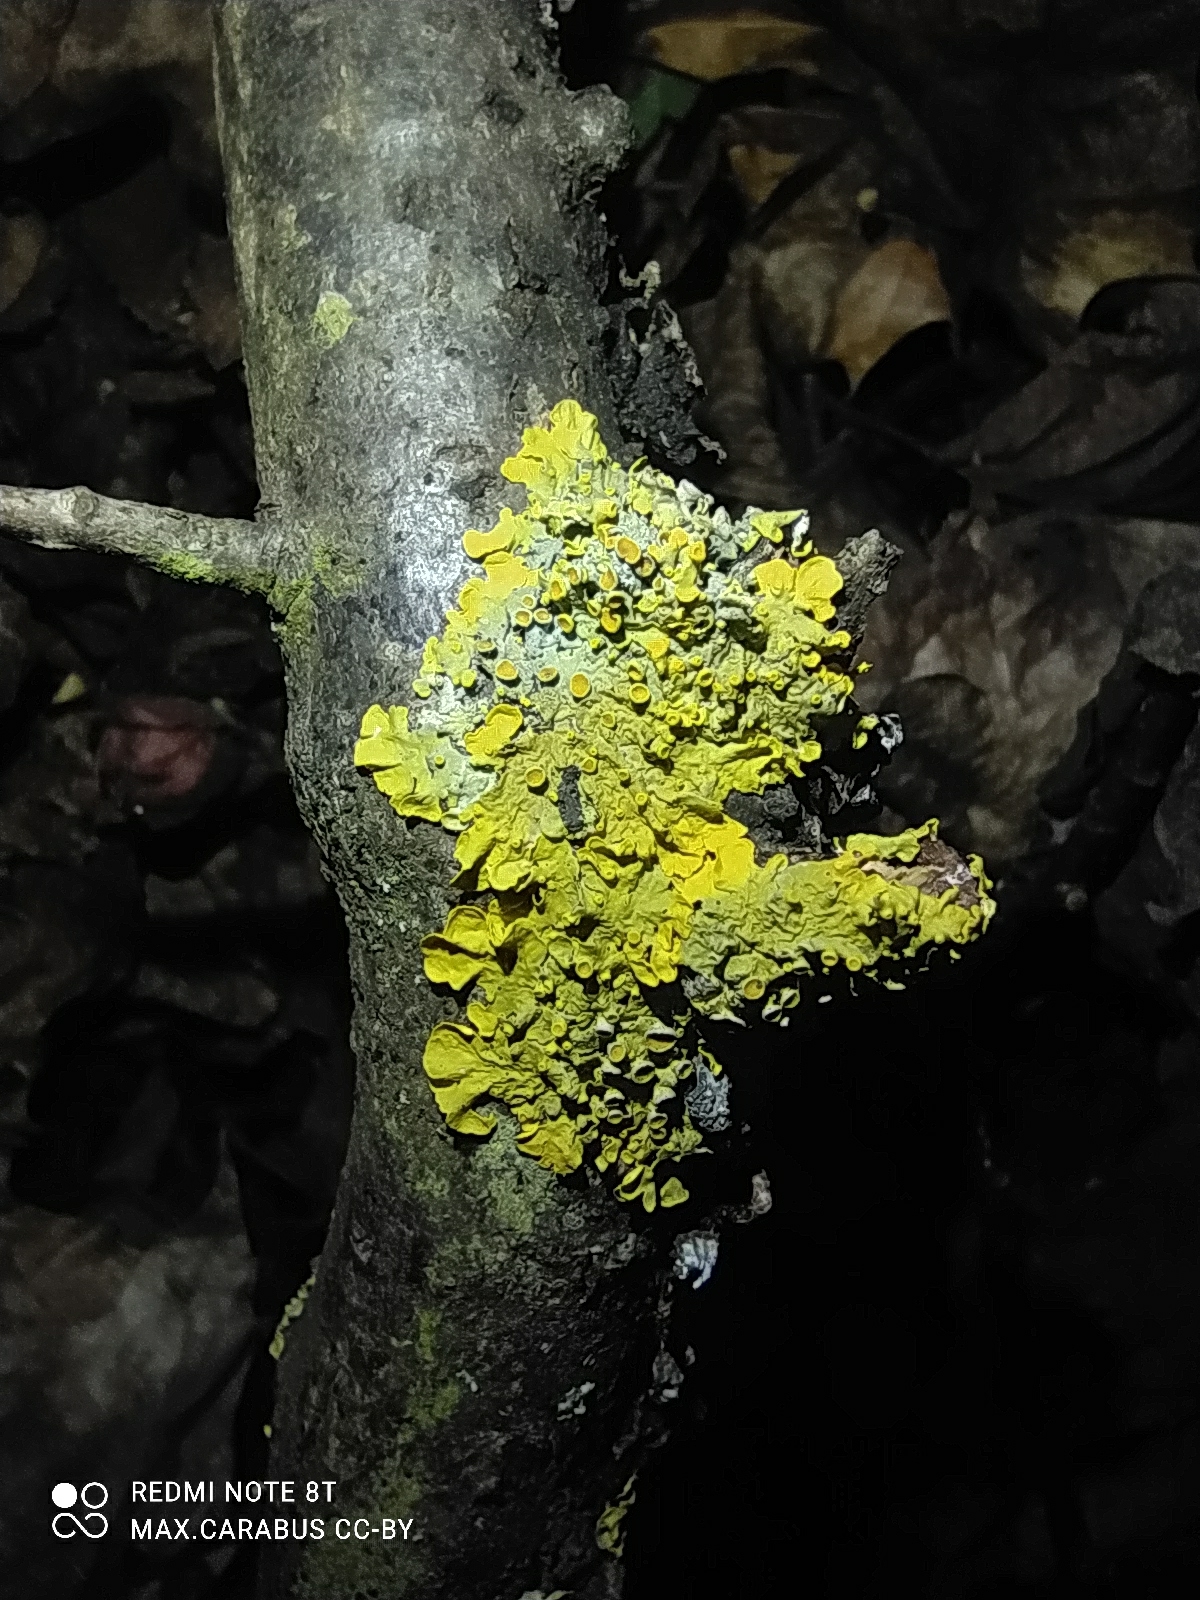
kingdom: Fungi
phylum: Ascomycota
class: Lecanoromycetes
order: Teloschistales
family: Teloschistaceae
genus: Xanthoria
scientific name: Xanthoria parietina
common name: Common orange lichen
